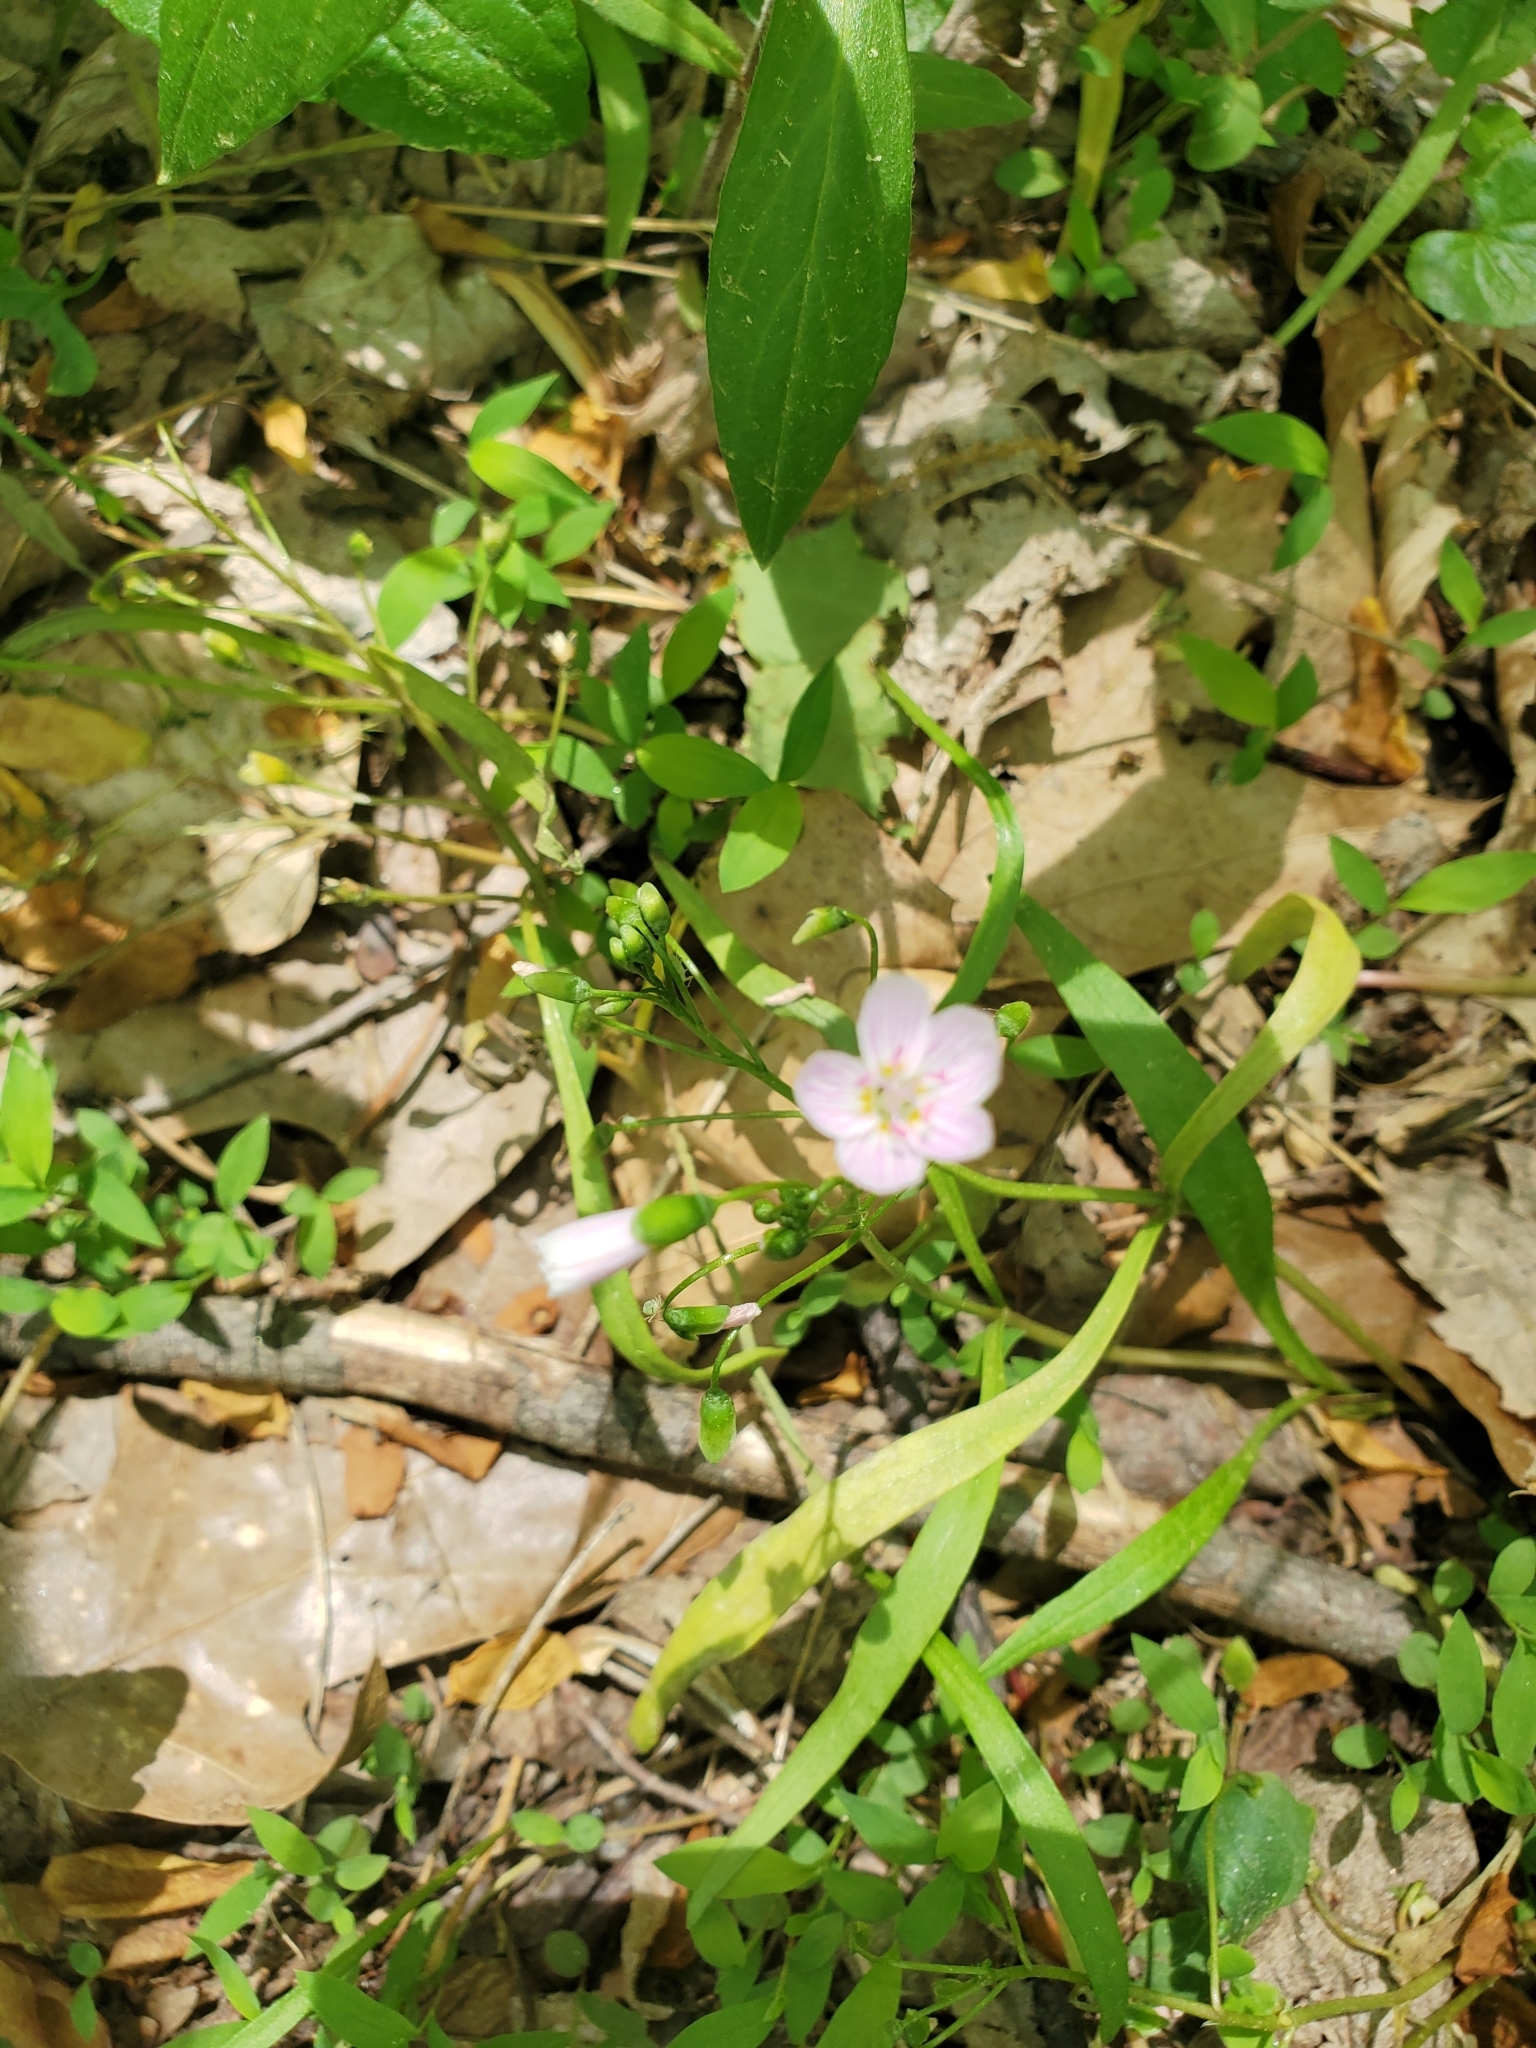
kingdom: Plantae
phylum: Tracheophyta
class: Magnoliopsida
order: Caryophyllales
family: Montiaceae
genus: Claytonia
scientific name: Claytonia virginica
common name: Virginia springbeauty
